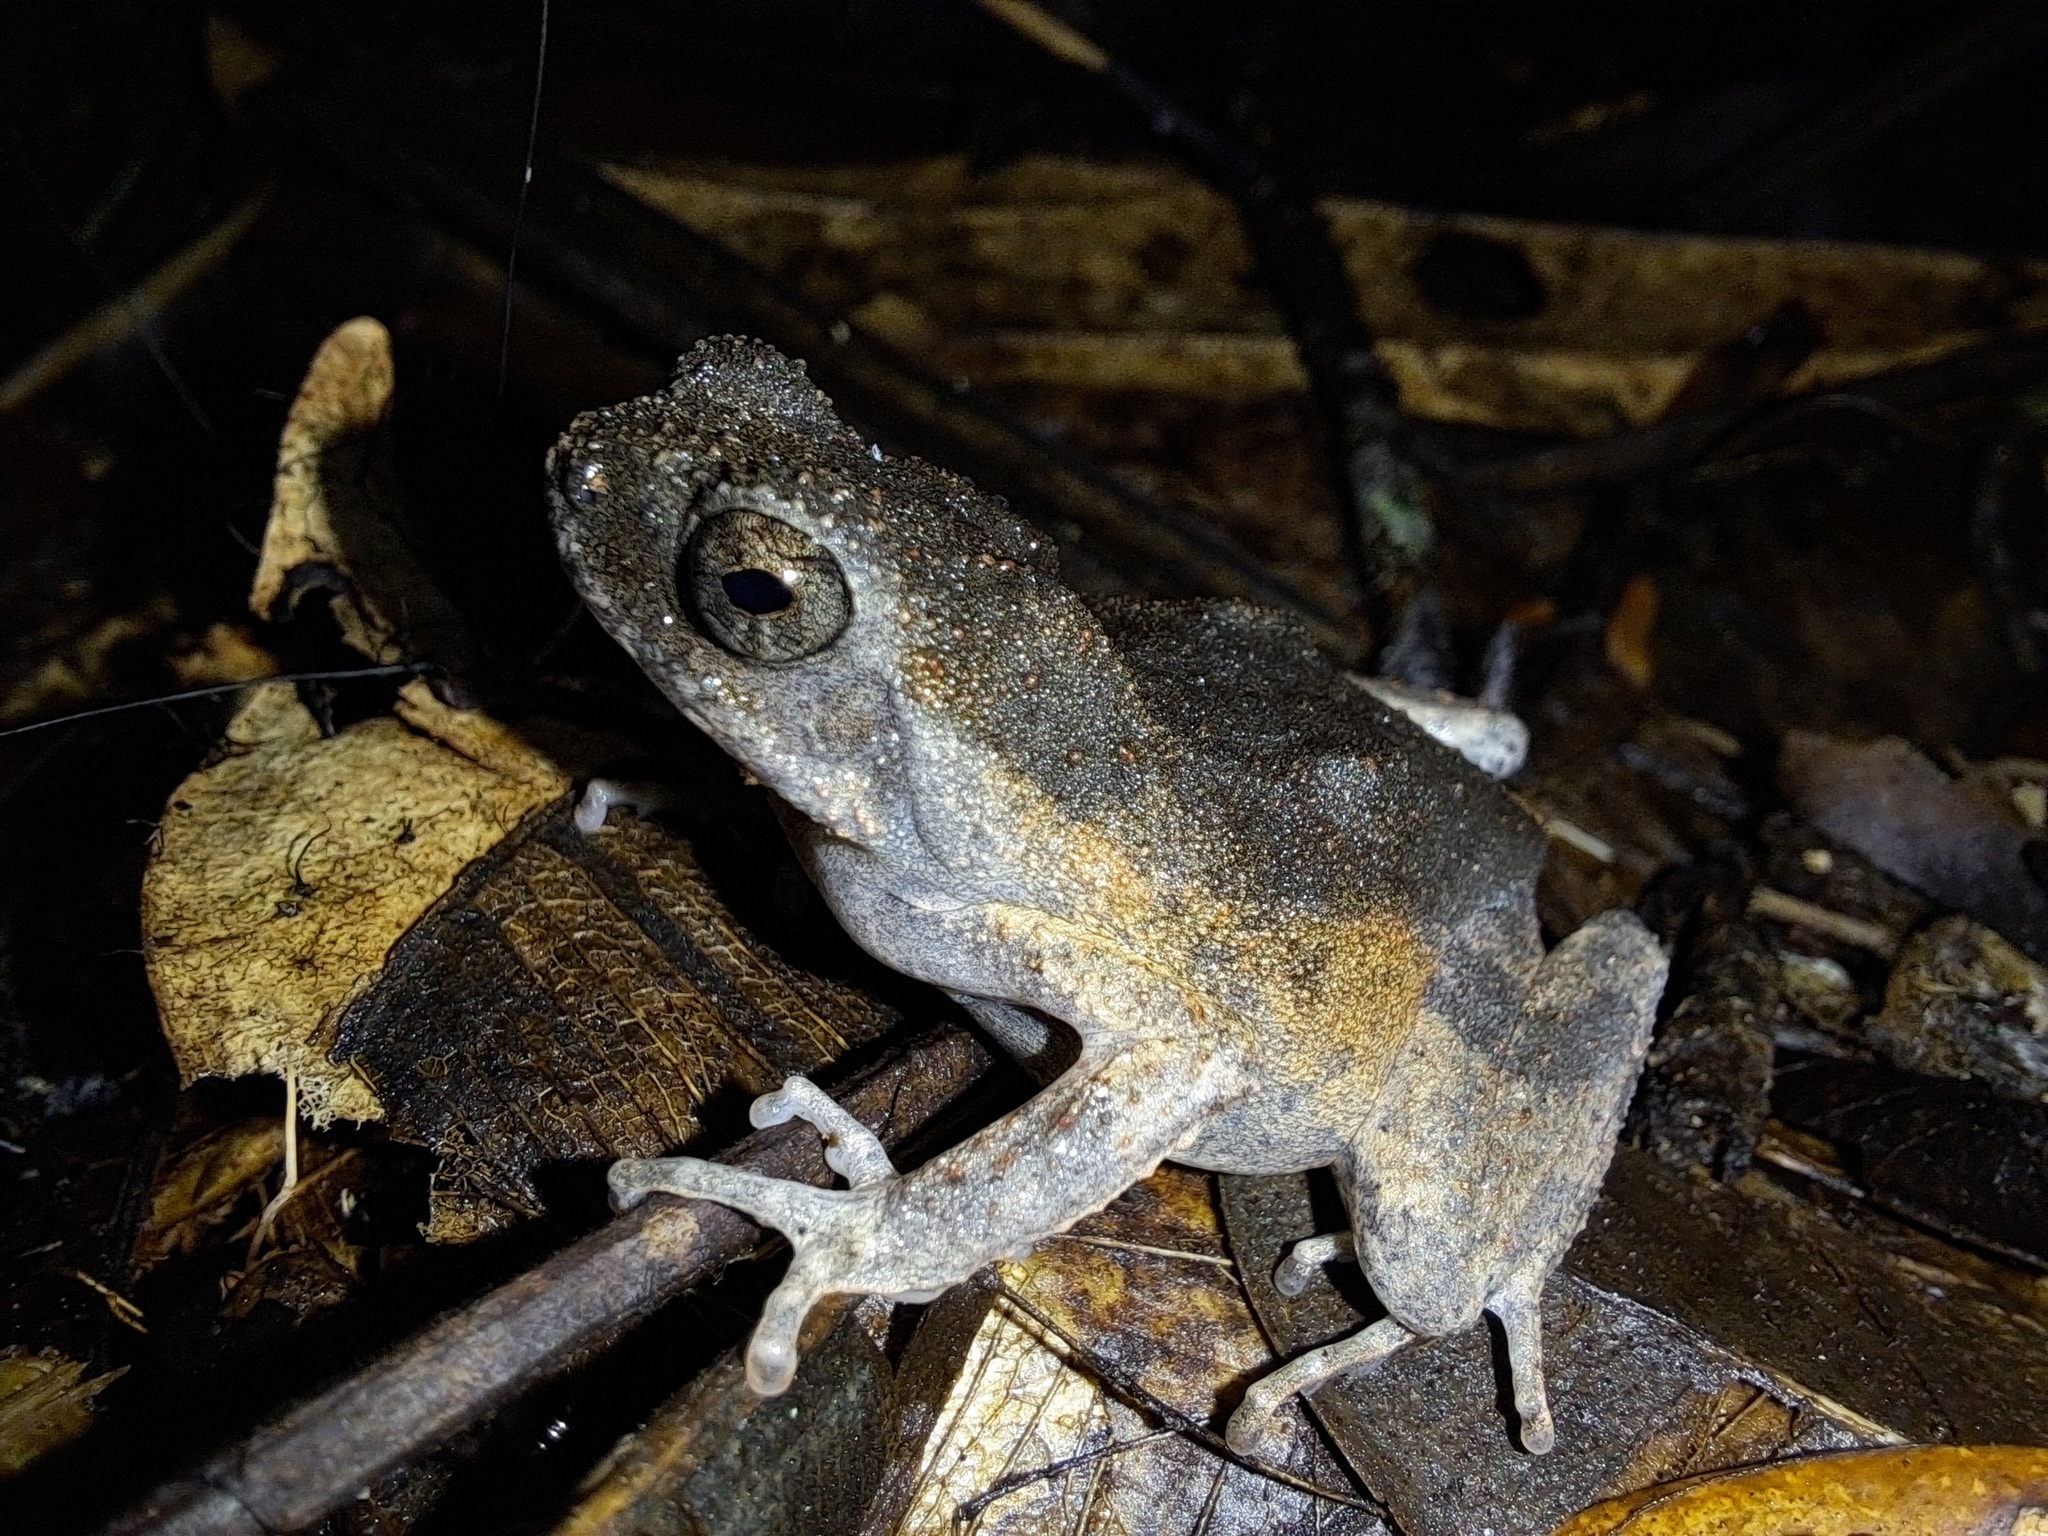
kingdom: Animalia
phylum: Chordata
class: Amphibia
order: Anura
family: Leptodactylidae
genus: Engystomops
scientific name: Engystomops petersi
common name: Peters’ dwarf frog
